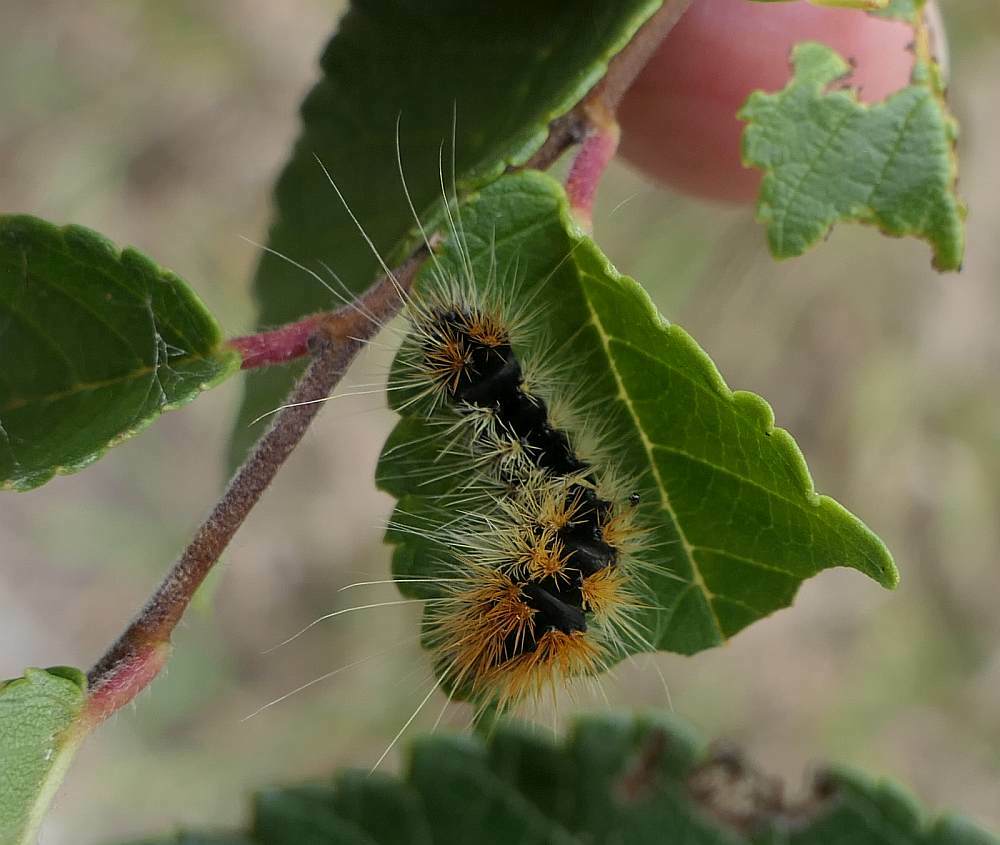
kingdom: Animalia
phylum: Arthropoda
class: Insecta
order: Lepidoptera
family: Noctuidae
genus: Acronicta
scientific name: Acronicta impressa
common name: Impressed dagger
